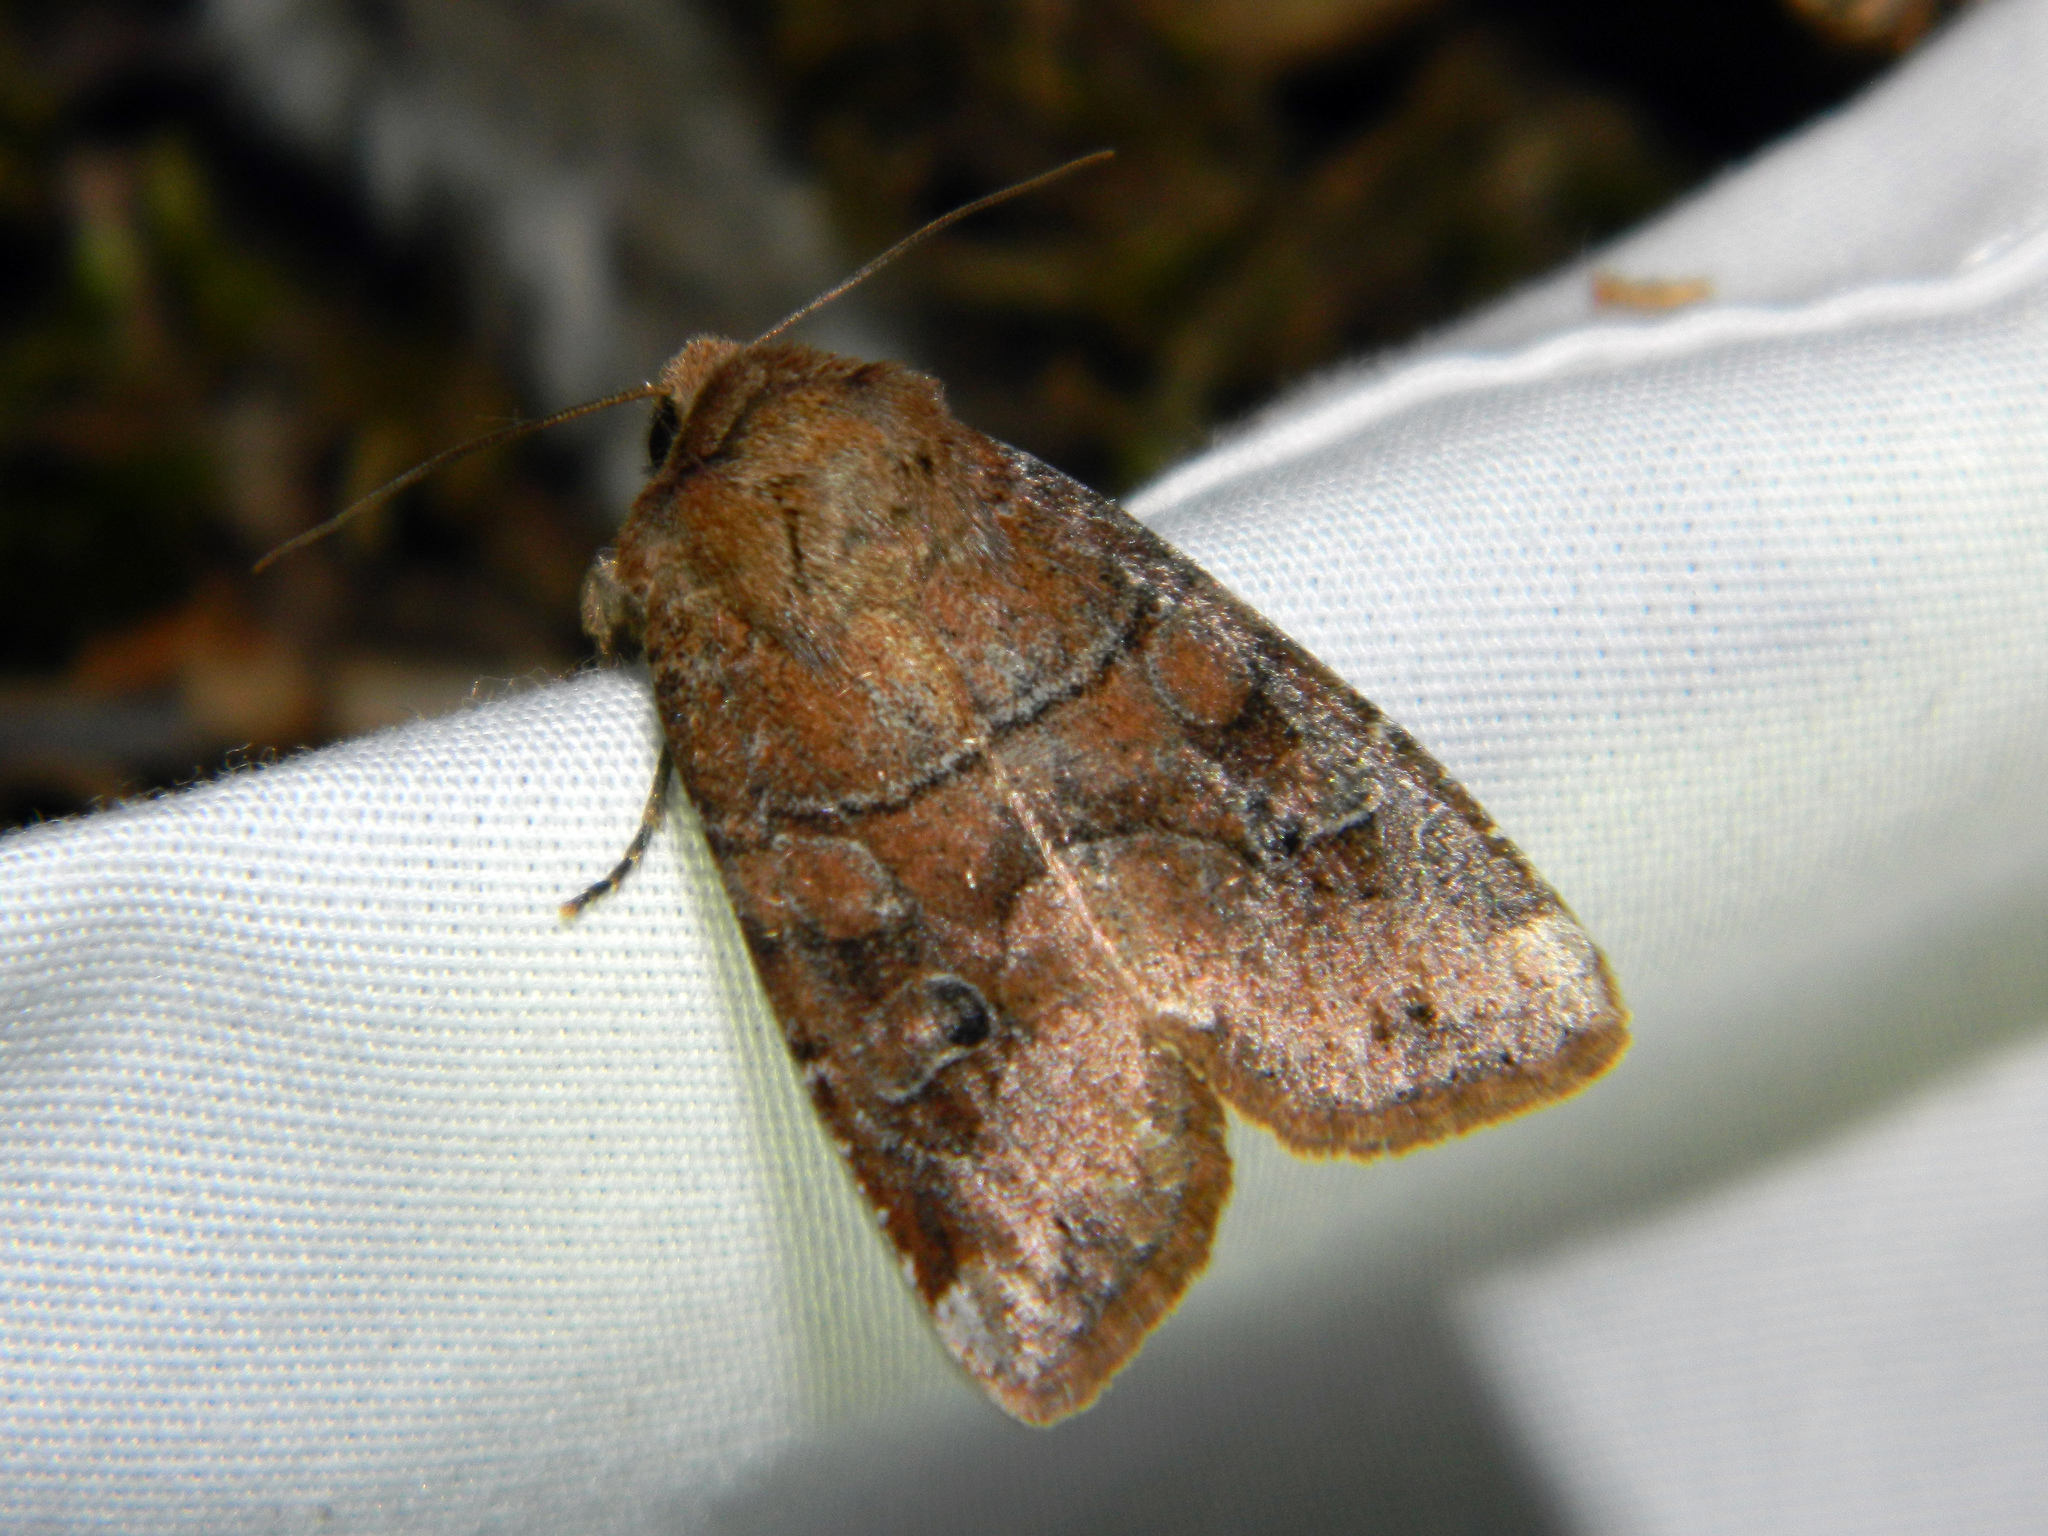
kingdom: Animalia
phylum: Arthropoda
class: Insecta
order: Lepidoptera
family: Noctuidae
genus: Crocigrapha
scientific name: Crocigrapha normani
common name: Norman's quaker
